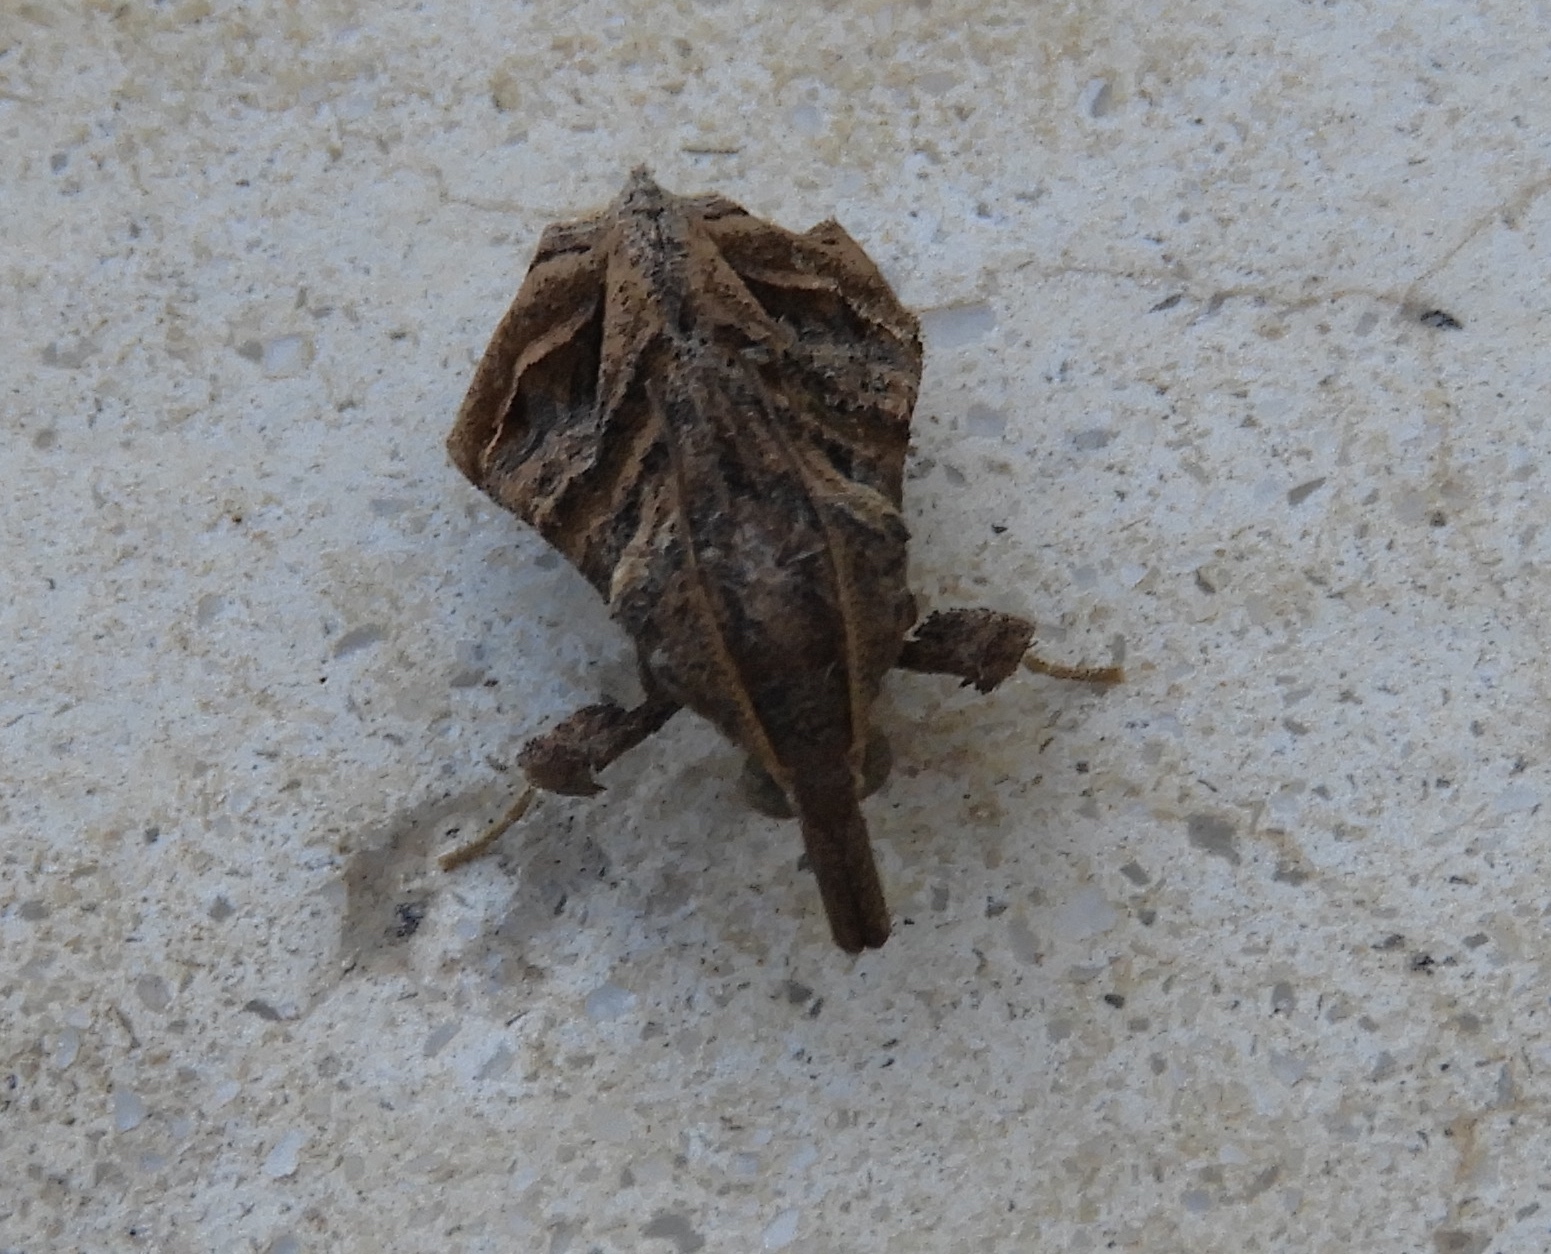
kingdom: Animalia
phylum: Arthropoda
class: Insecta
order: Lepidoptera
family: Pyralidae
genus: Bonchis
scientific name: Bonchis munitalis
